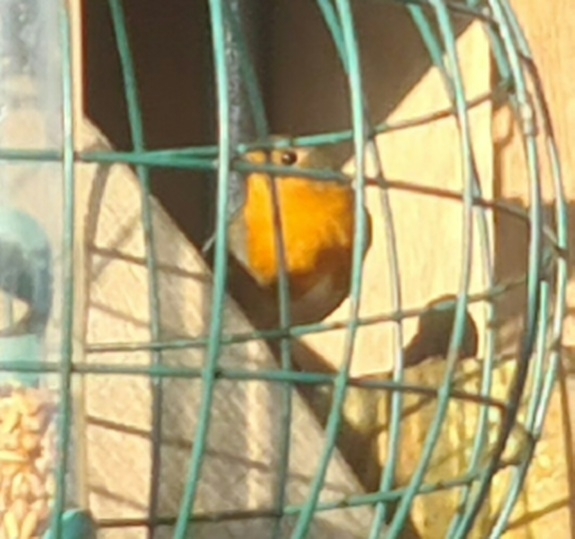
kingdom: Animalia
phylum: Chordata
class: Aves
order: Passeriformes
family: Muscicapidae
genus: Erithacus
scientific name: Erithacus rubecula
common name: European robin
